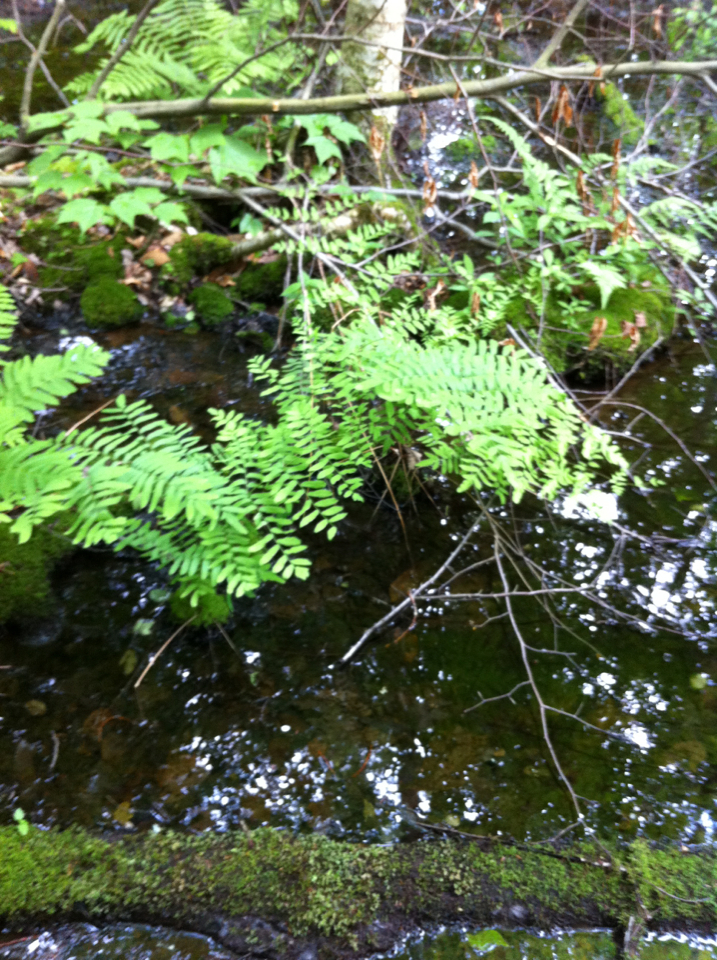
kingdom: Plantae
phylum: Tracheophyta
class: Polypodiopsida
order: Osmundales
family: Osmundaceae
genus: Osmunda
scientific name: Osmunda spectabilis
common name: American royal fern
